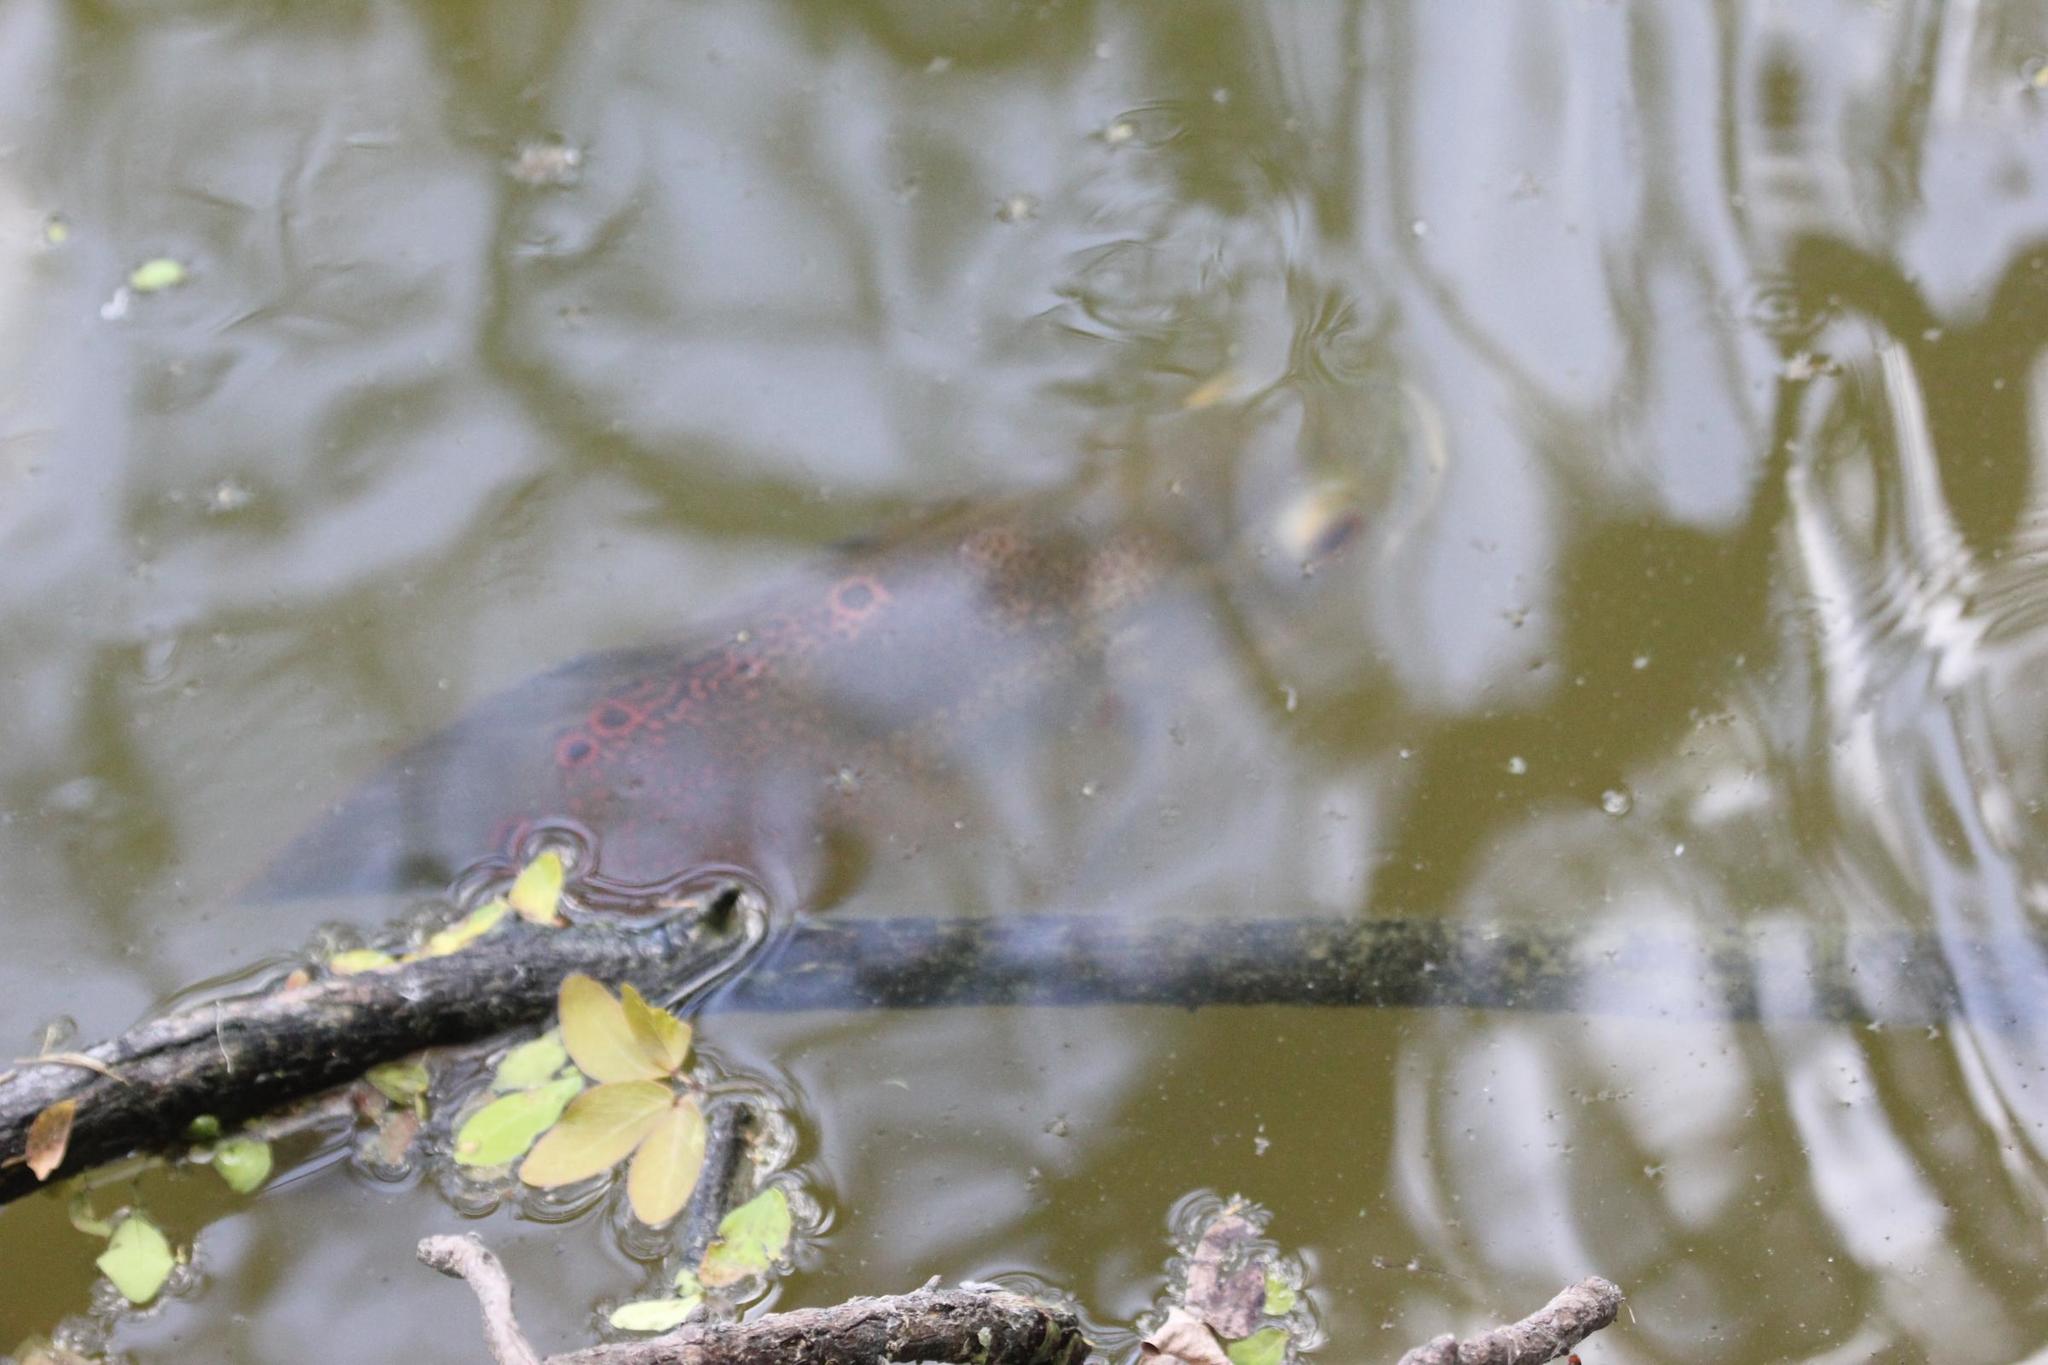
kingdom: Animalia
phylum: Chordata
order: Perciformes
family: Cichlidae
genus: Astronotus
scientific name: Astronotus ocellatus
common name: Oscar
